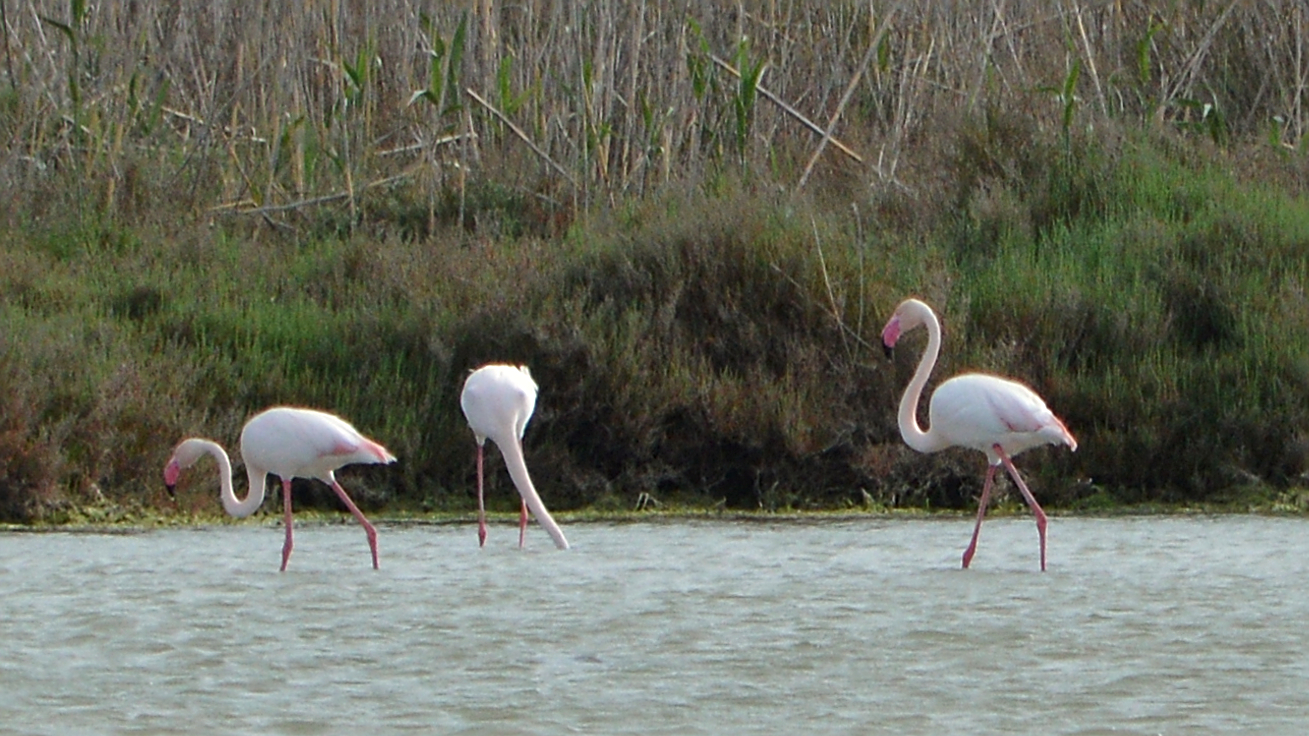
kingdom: Animalia
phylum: Chordata
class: Aves
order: Phoenicopteriformes
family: Phoenicopteridae
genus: Phoenicopterus
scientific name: Phoenicopterus roseus
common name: Greater flamingo
